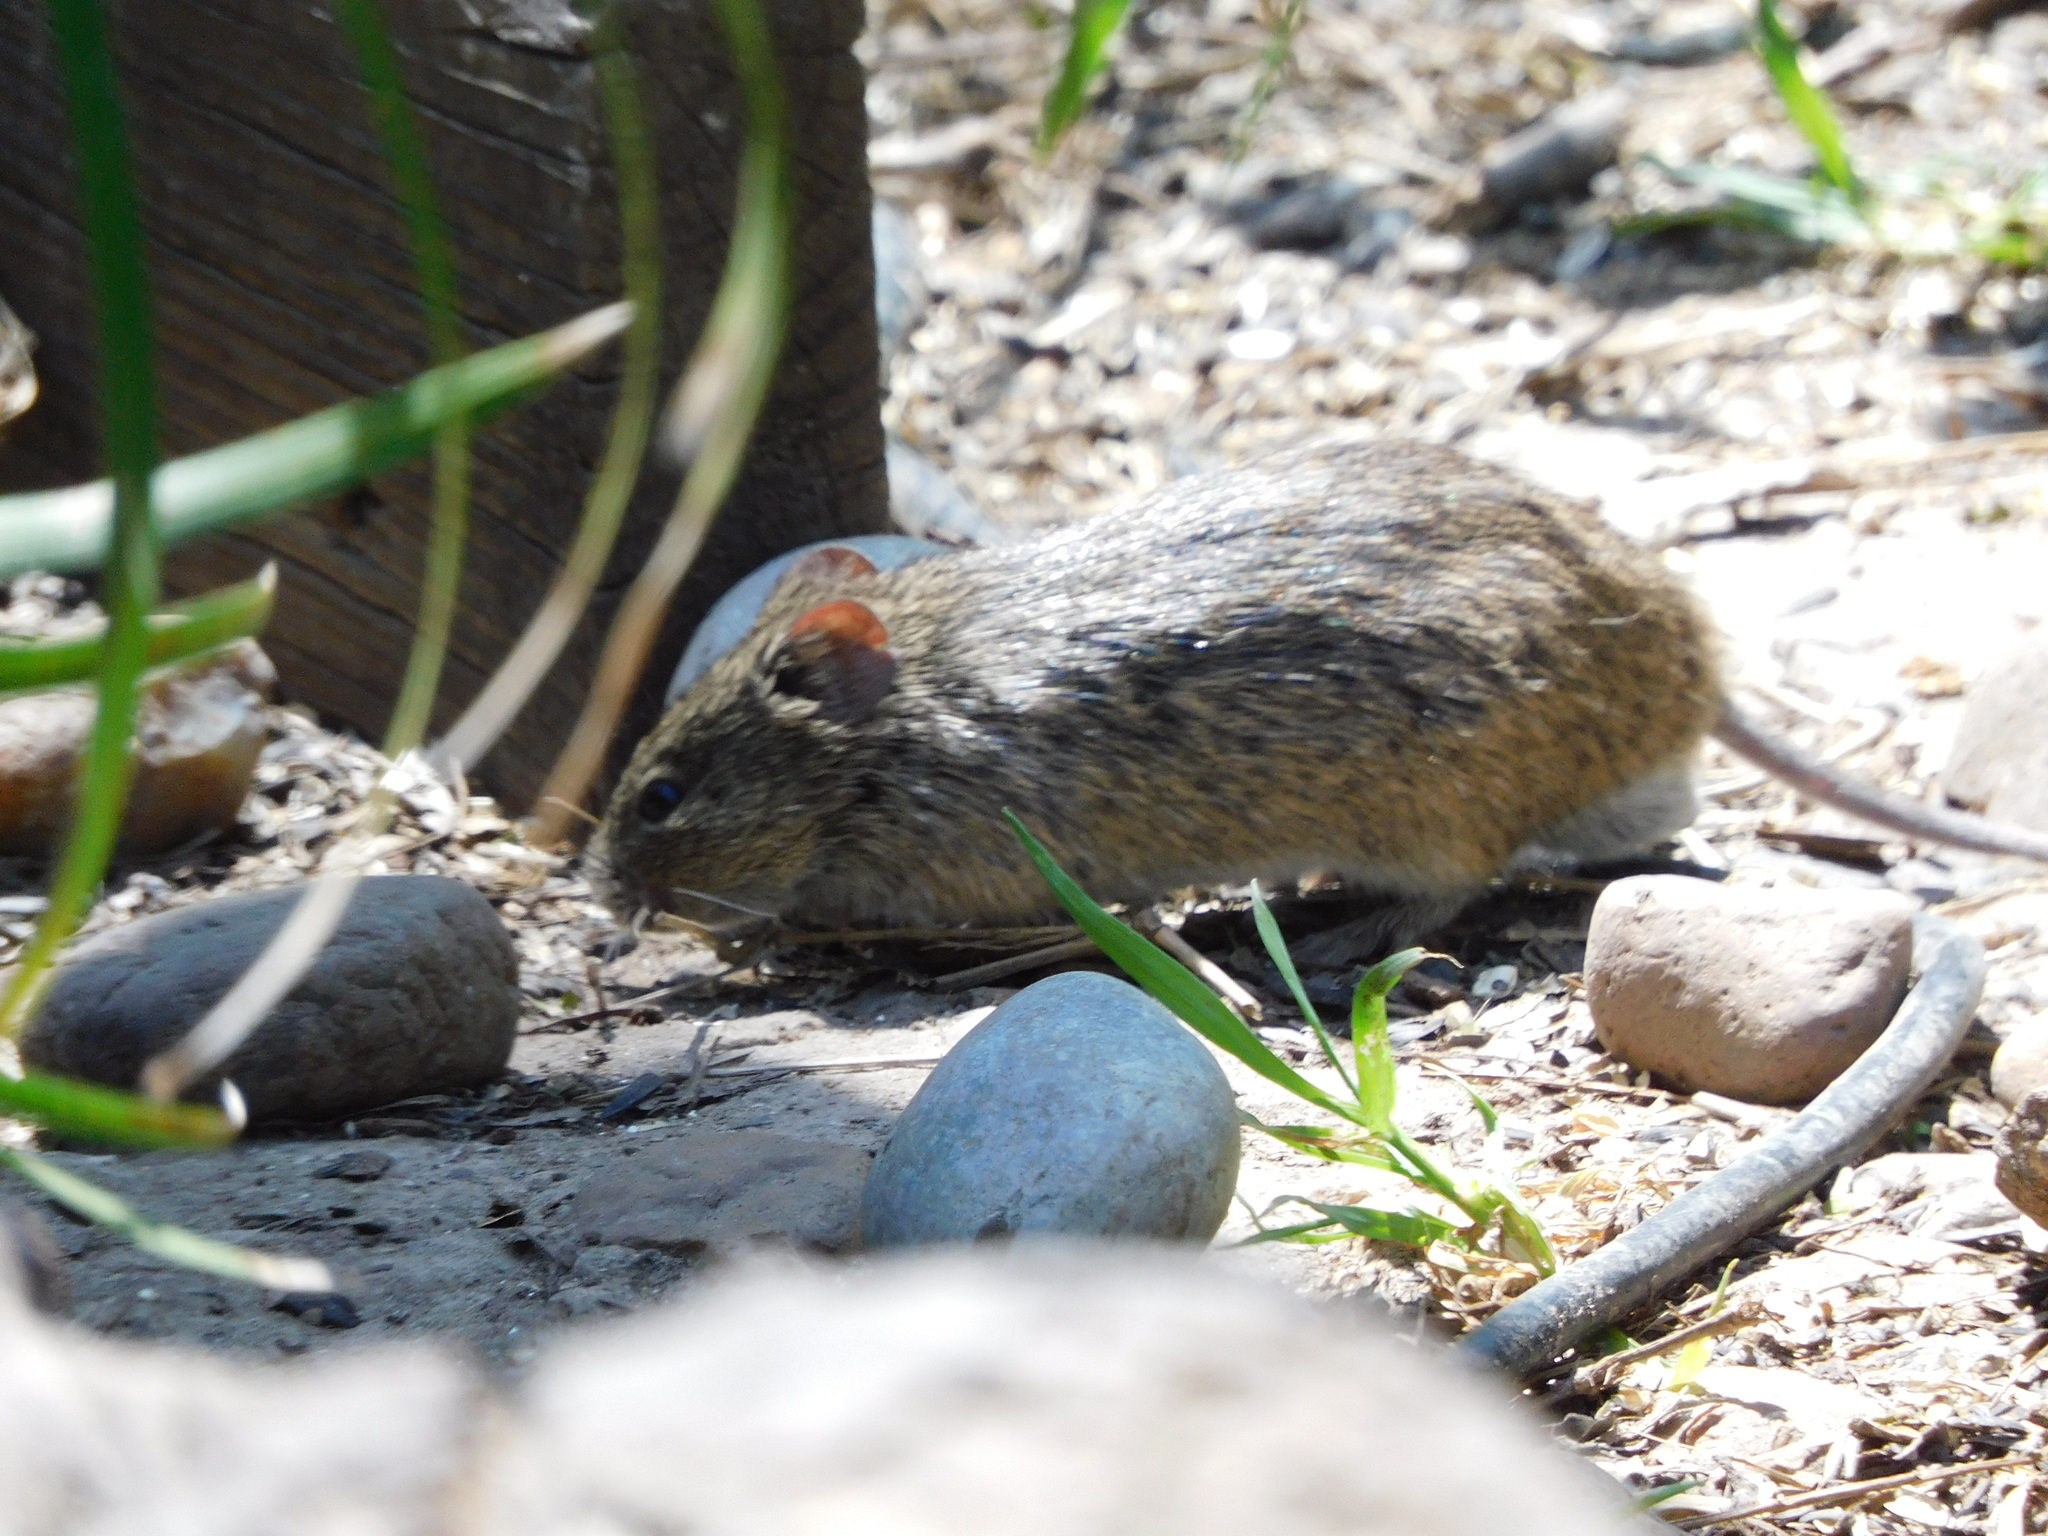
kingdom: Animalia
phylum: Chordata
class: Mammalia
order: Rodentia
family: Cricetidae
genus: Sigmodon
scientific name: Sigmodon hispidus
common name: Hispid cotton rat
